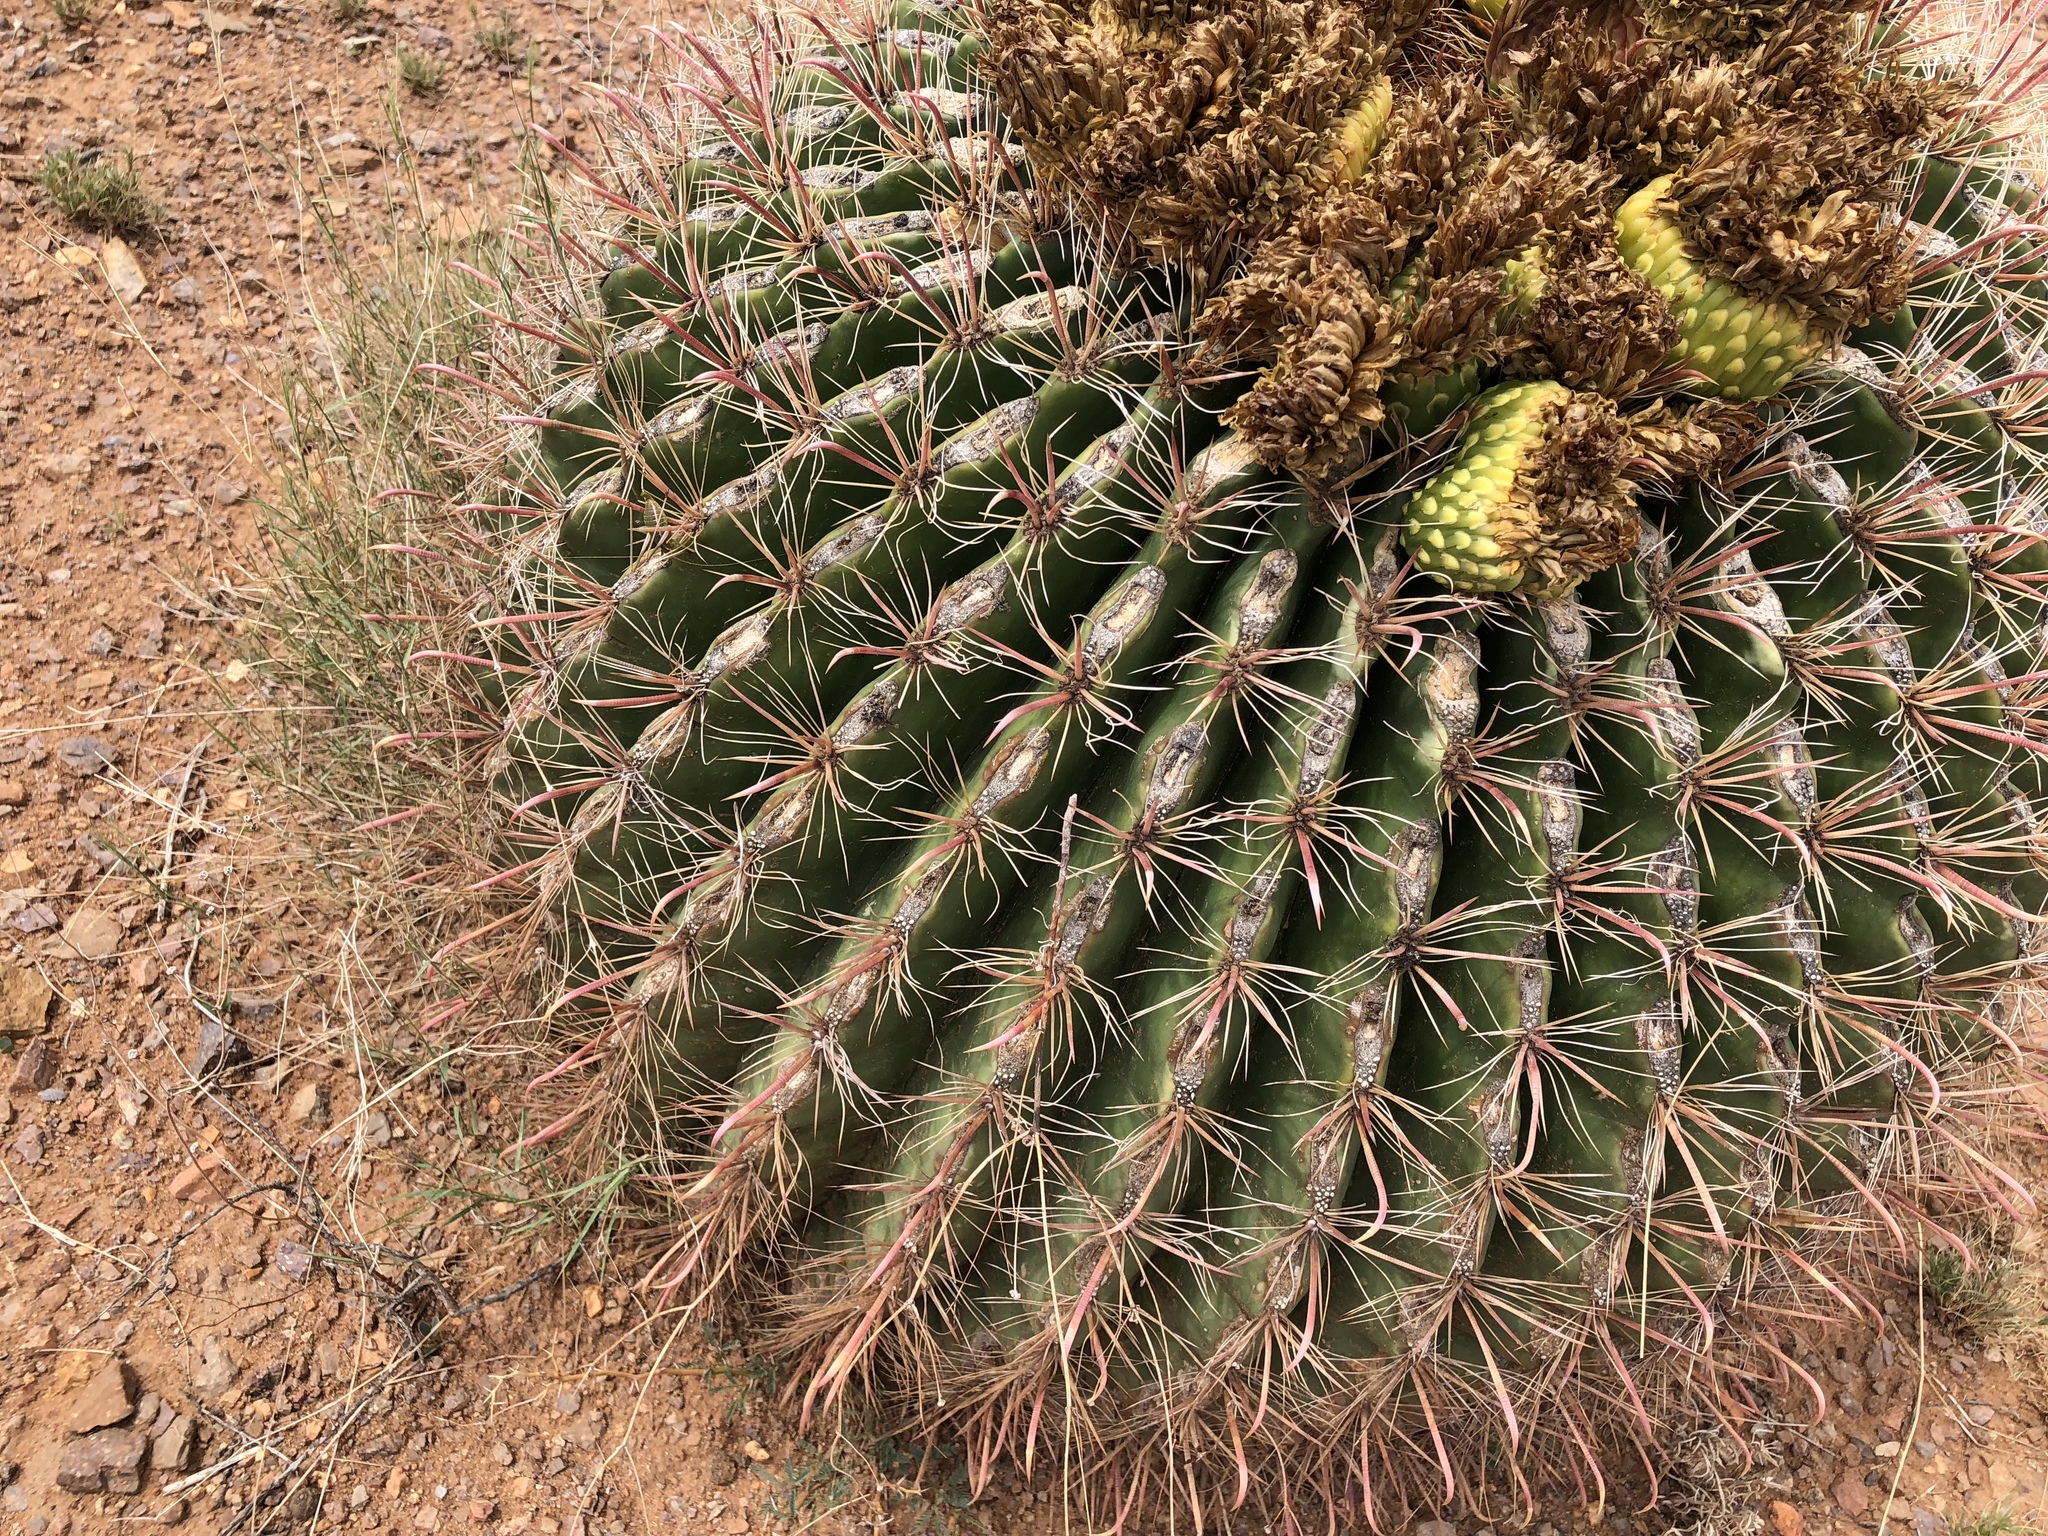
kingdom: Plantae
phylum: Tracheophyta
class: Magnoliopsida
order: Caryophyllales
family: Cactaceae
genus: Ferocactus
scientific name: Ferocactus wislizeni
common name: Candy barrel cactus
